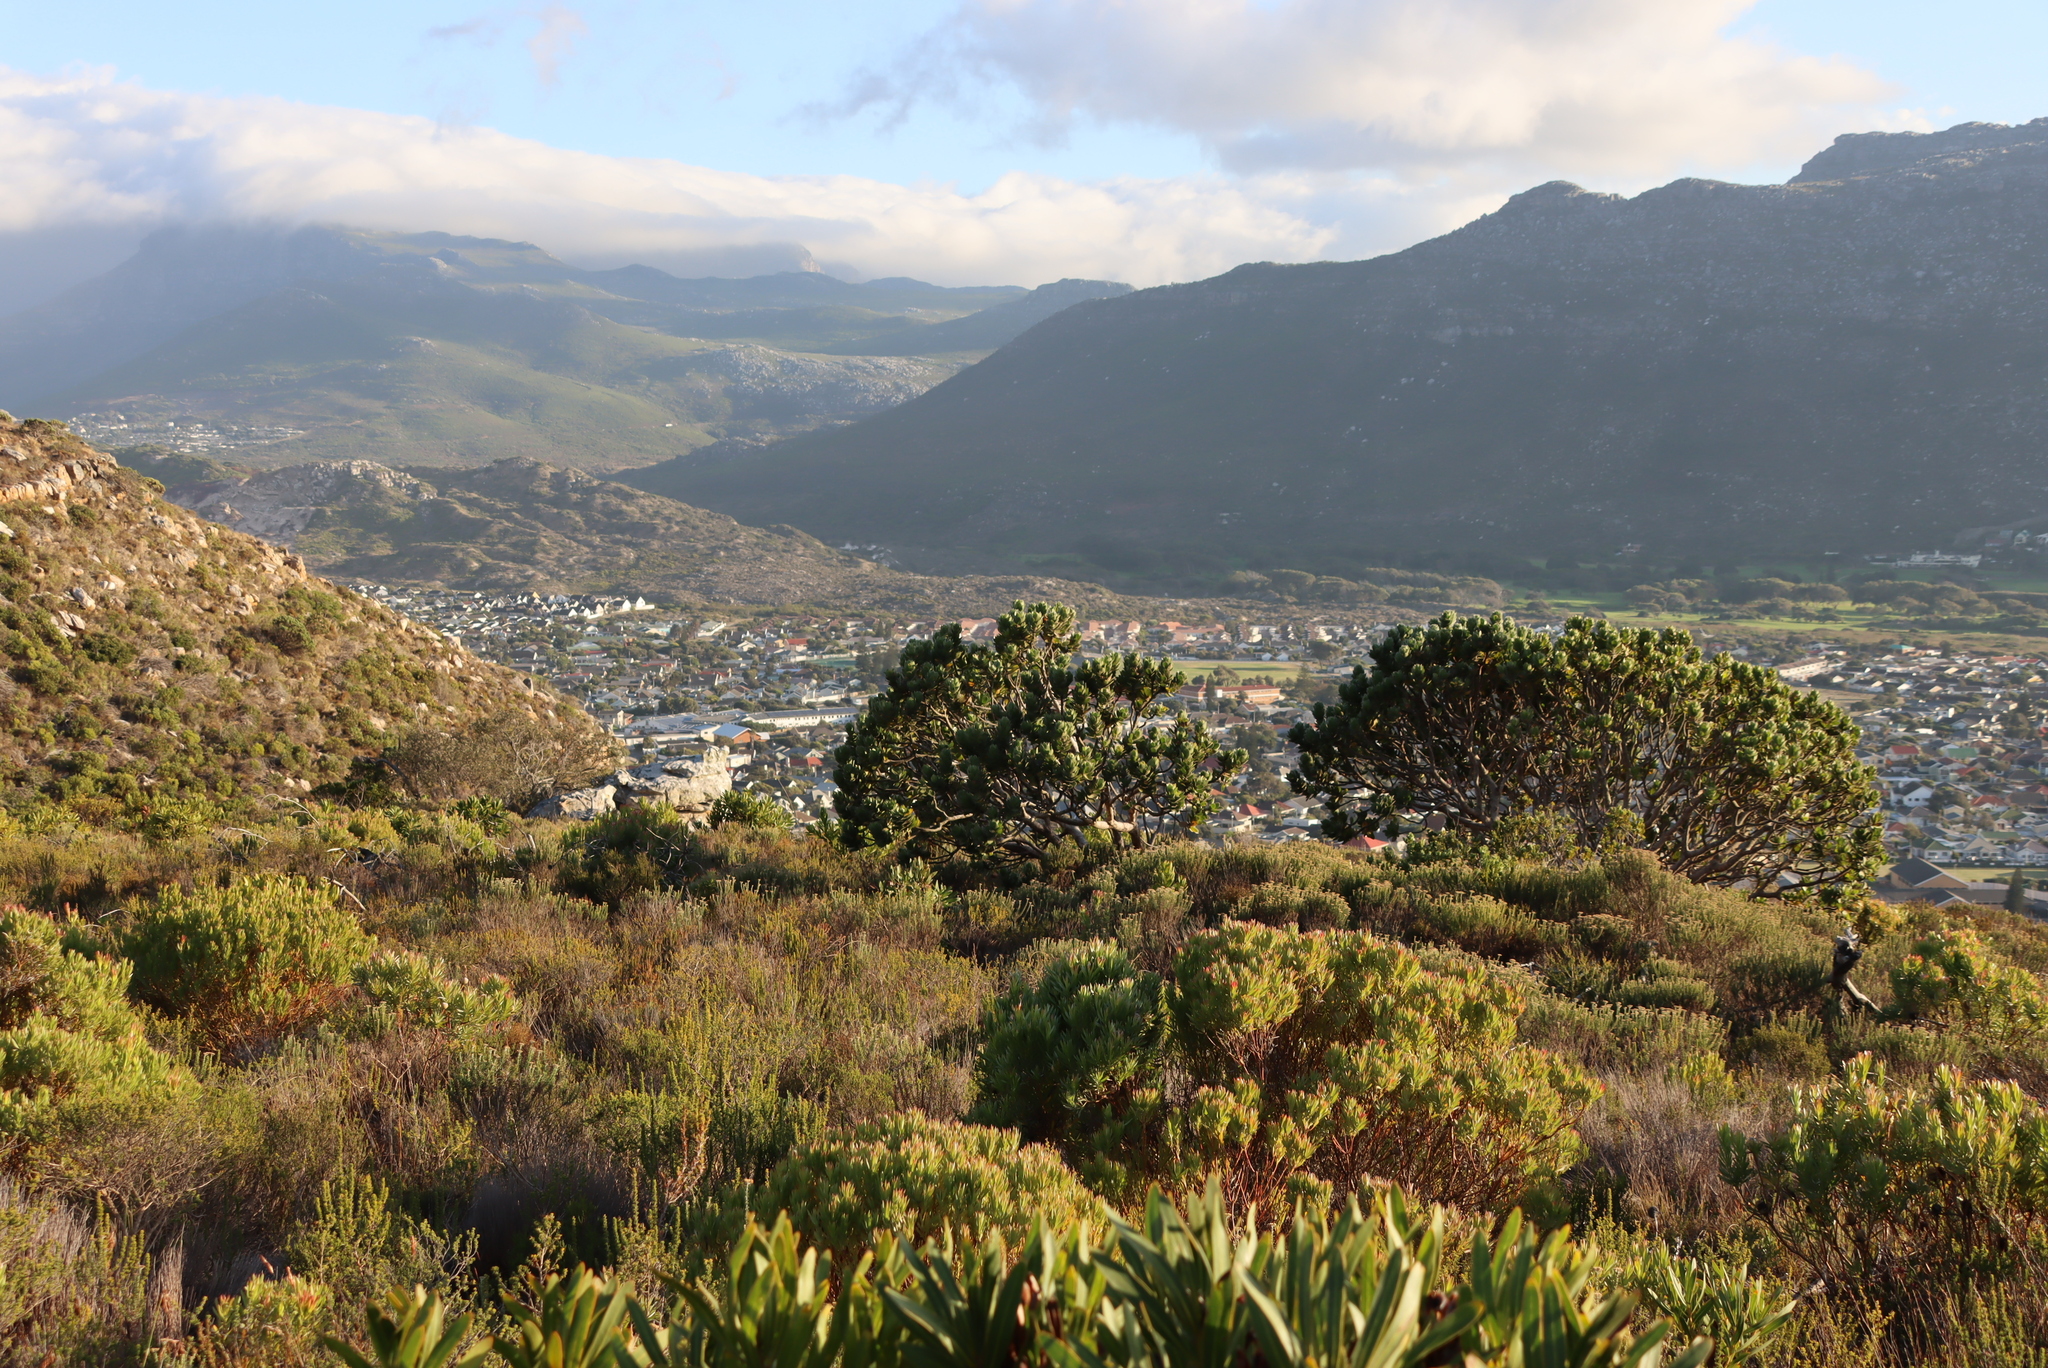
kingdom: Plantae
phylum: Tracheophyta
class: Magnoliopsida
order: Proteales
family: Proteaceae
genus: Leucospermum
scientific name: Leucospermum conocarpodendron
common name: Tree pincushion
